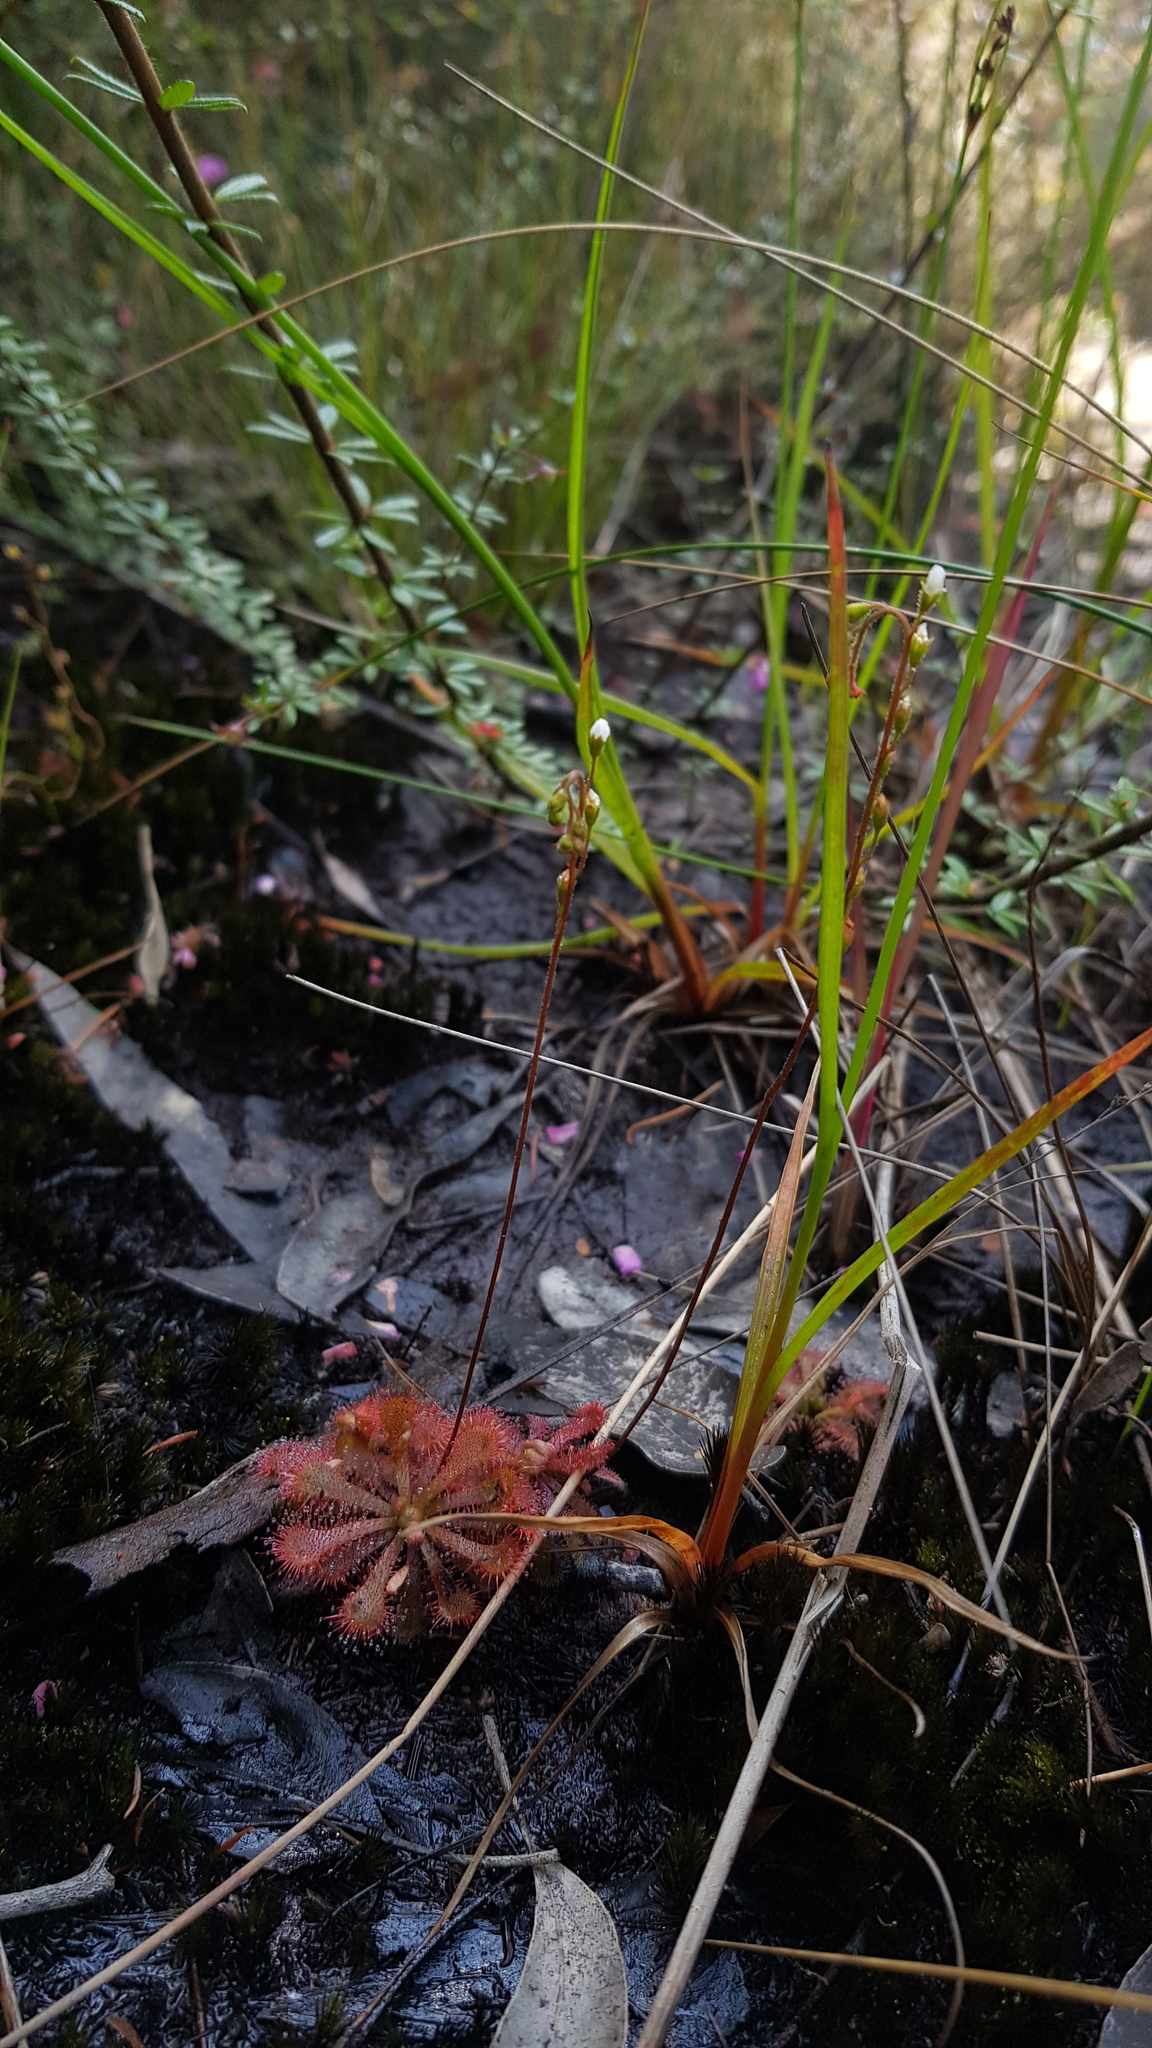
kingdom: Plantae
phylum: Tracheophyta
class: Magnoliopsida
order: Caryophyllales
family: Droseraceae
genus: Drosera
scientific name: Drosera spatulata
